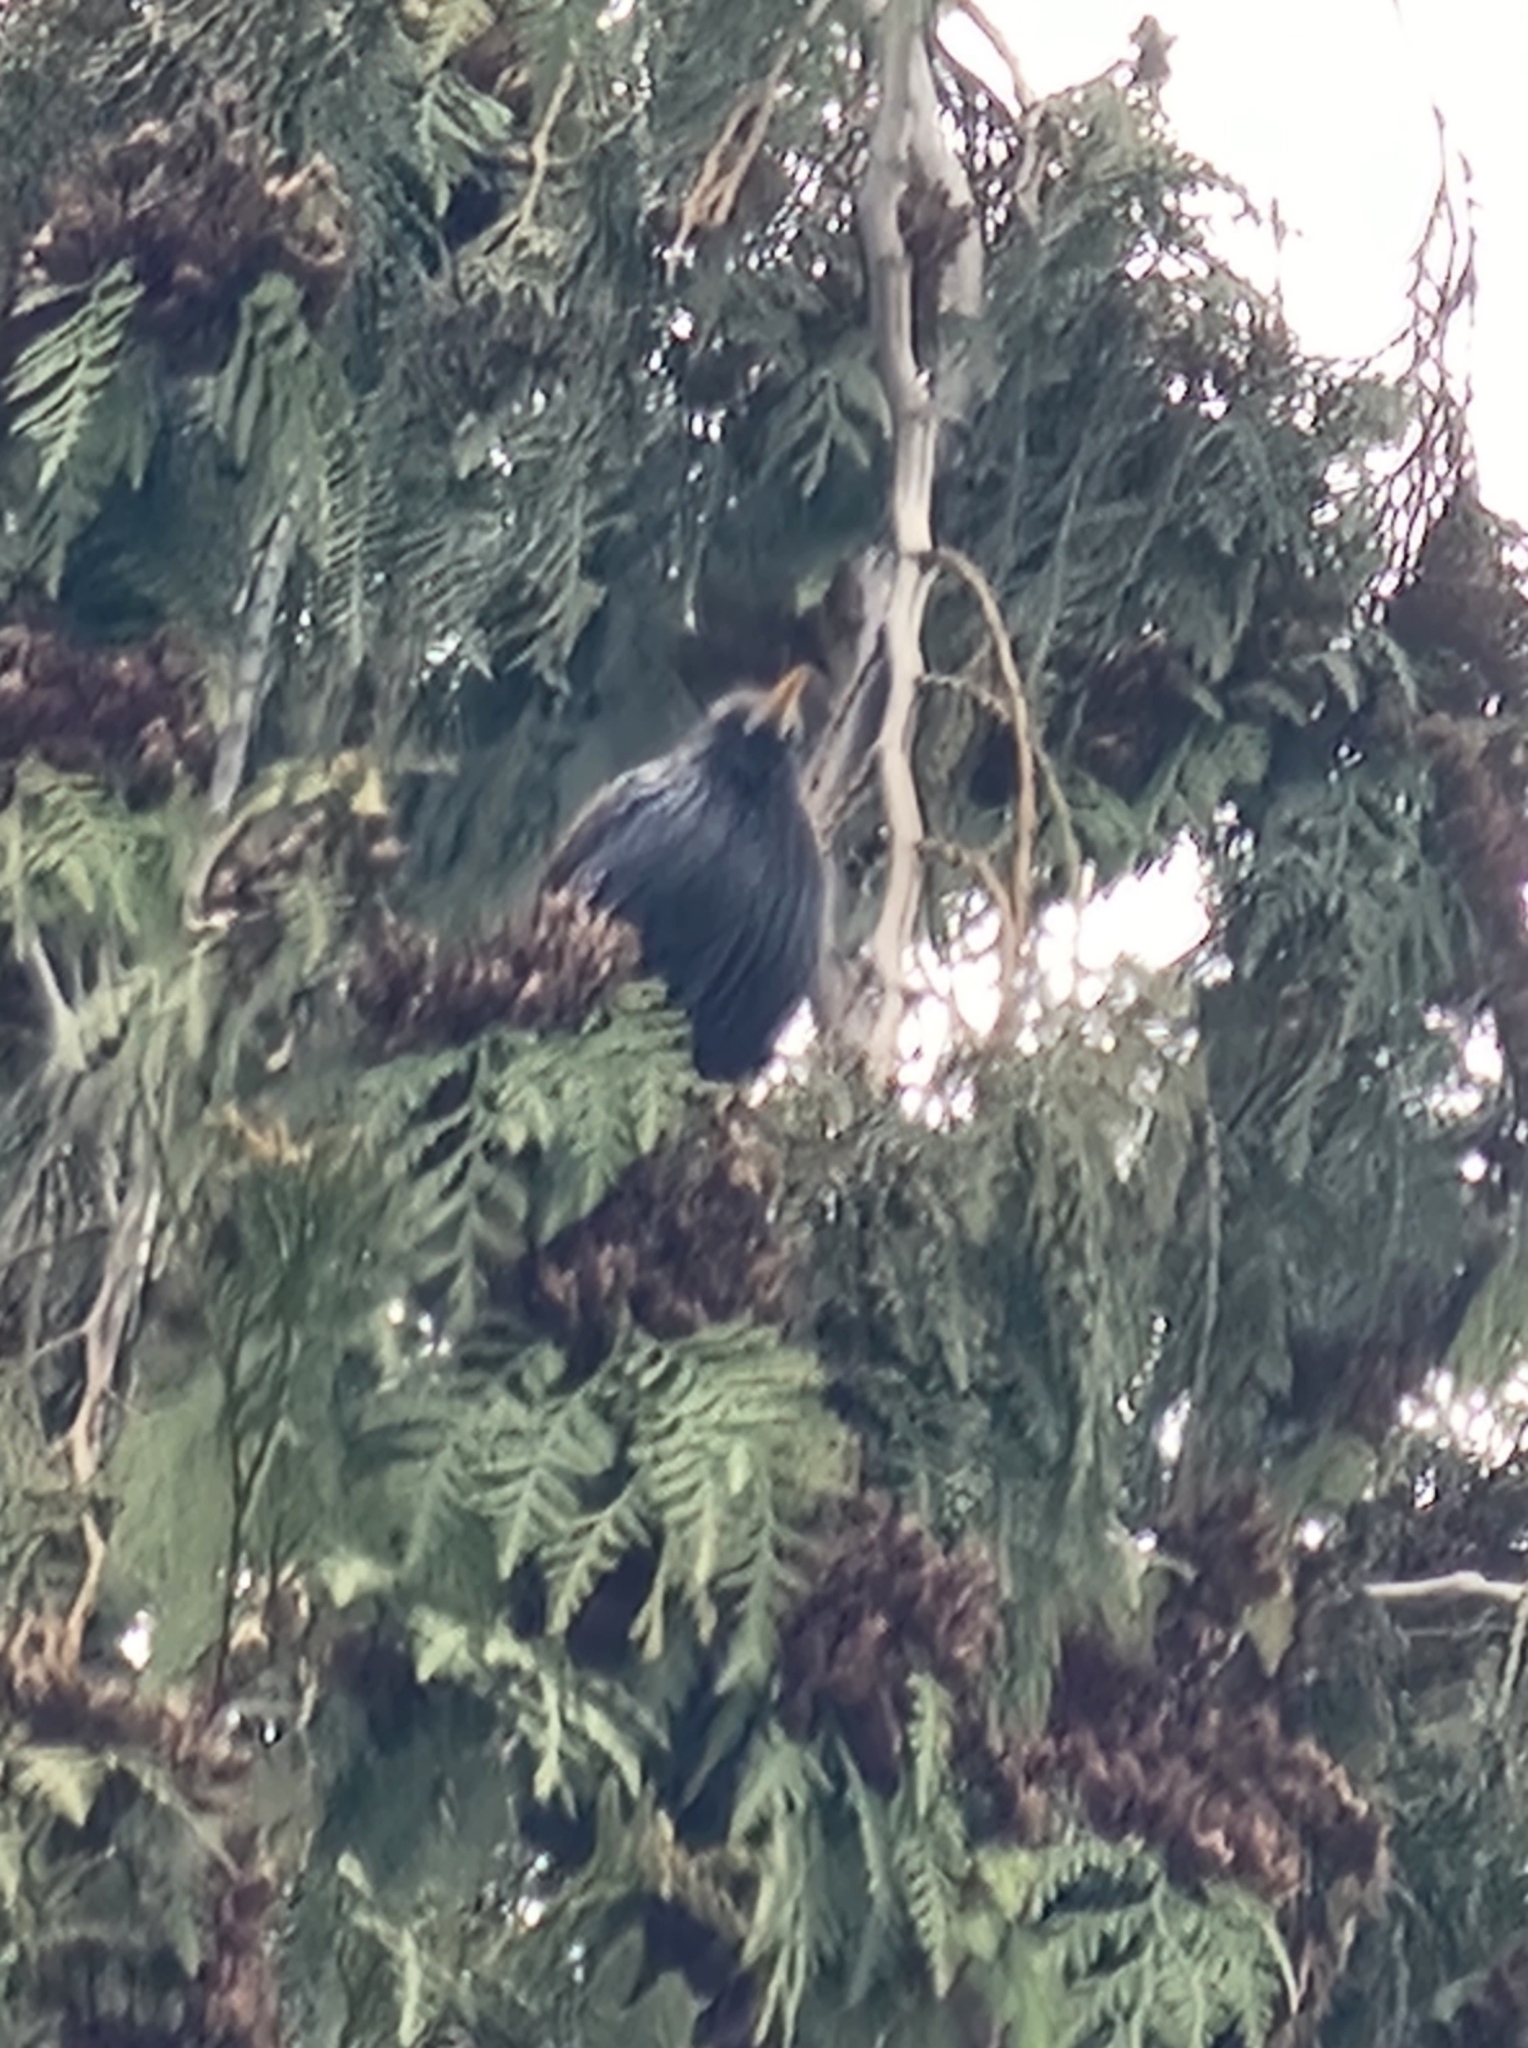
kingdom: Animalia
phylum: Chordata
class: Aves
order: Passeriformes
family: Sturnidae
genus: Sturnus
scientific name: Sturnus vulgaris
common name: Common starling
